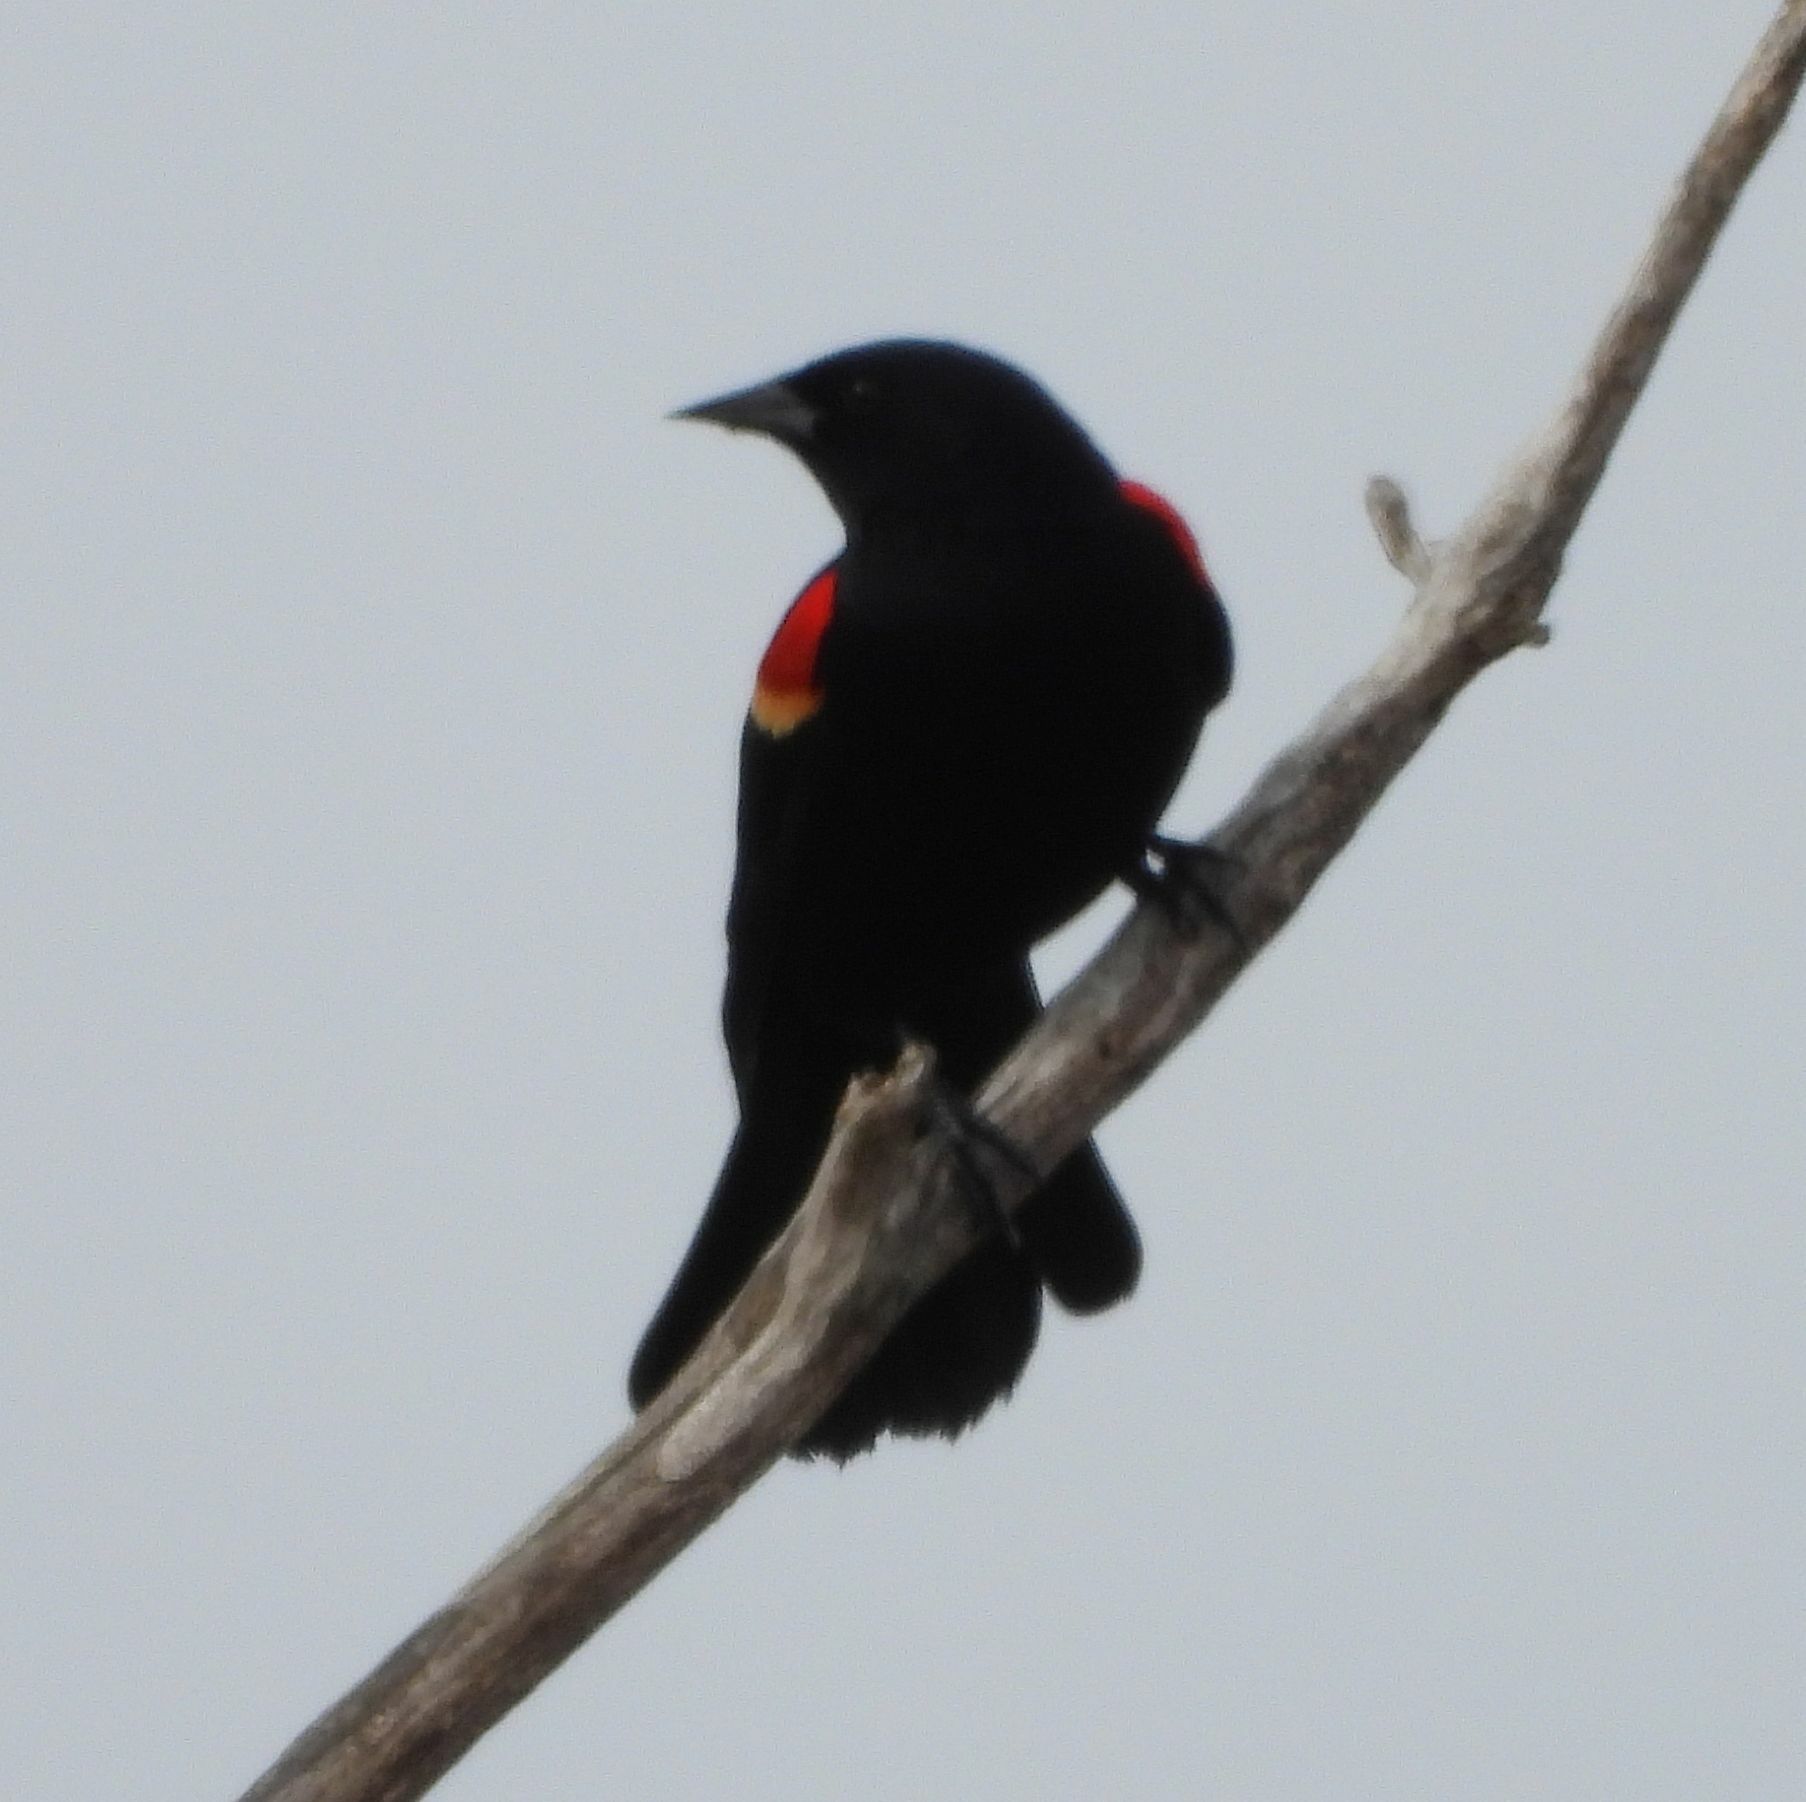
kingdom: Animalia
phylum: Chordata
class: Aves
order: Passeriformes
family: Icteridae
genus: Agelaius
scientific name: Agelaius phoeniceus
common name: Red-winged blackbird
